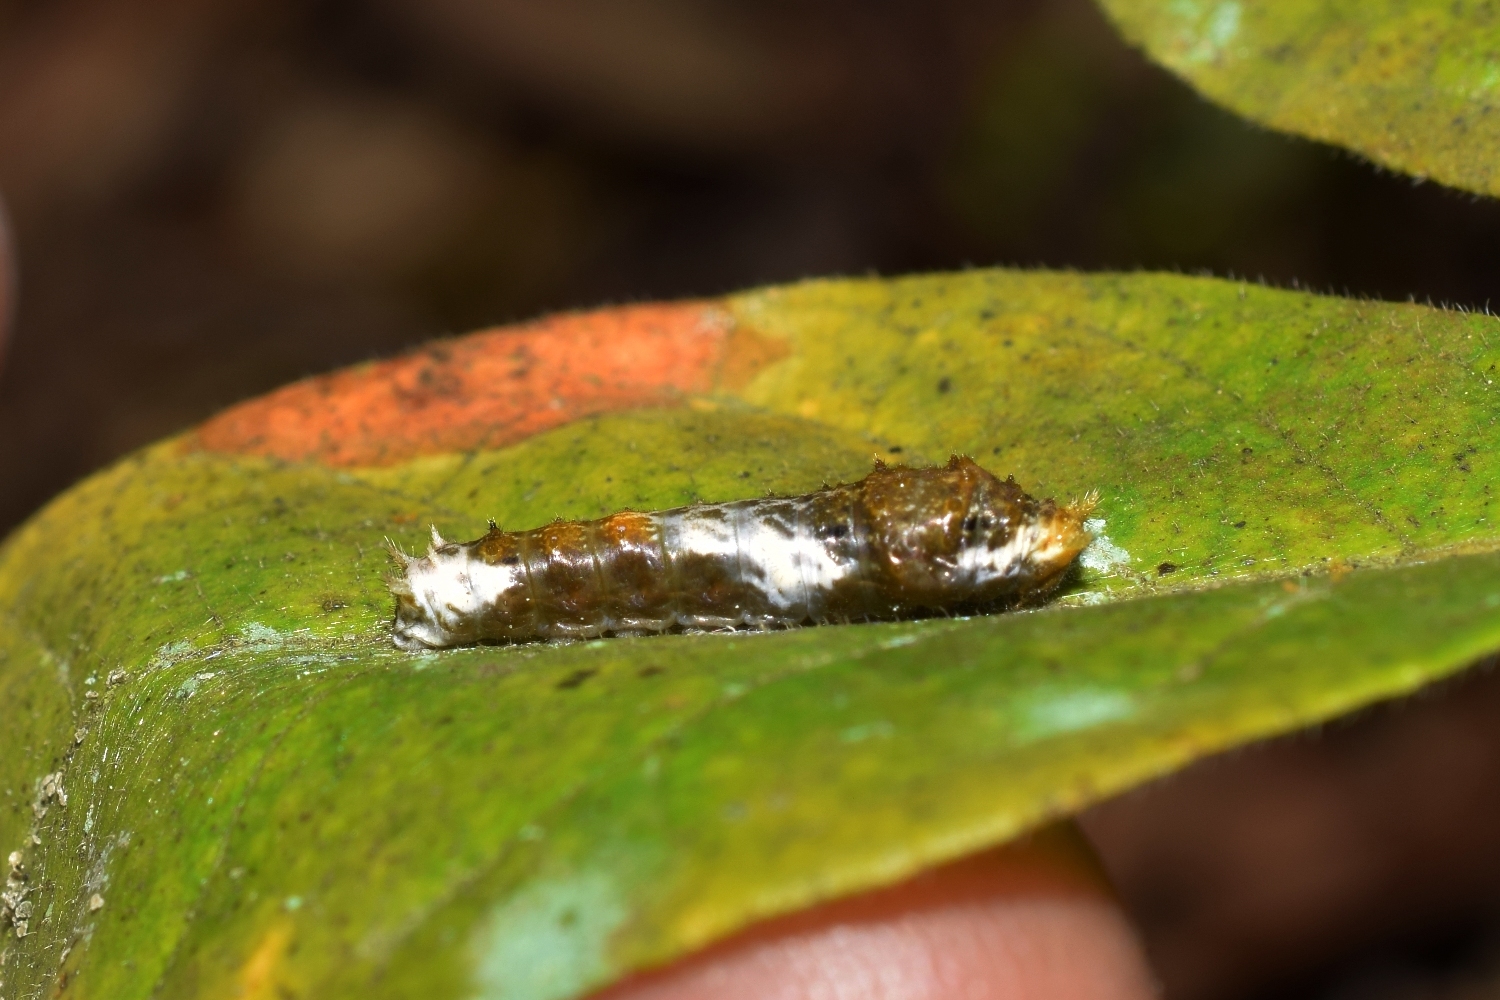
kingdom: Animalia
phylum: Arthropoda
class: Insecta
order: Lepidoptera
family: Papilionidae
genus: Papilio
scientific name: Papilio polytes
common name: Common mormon
